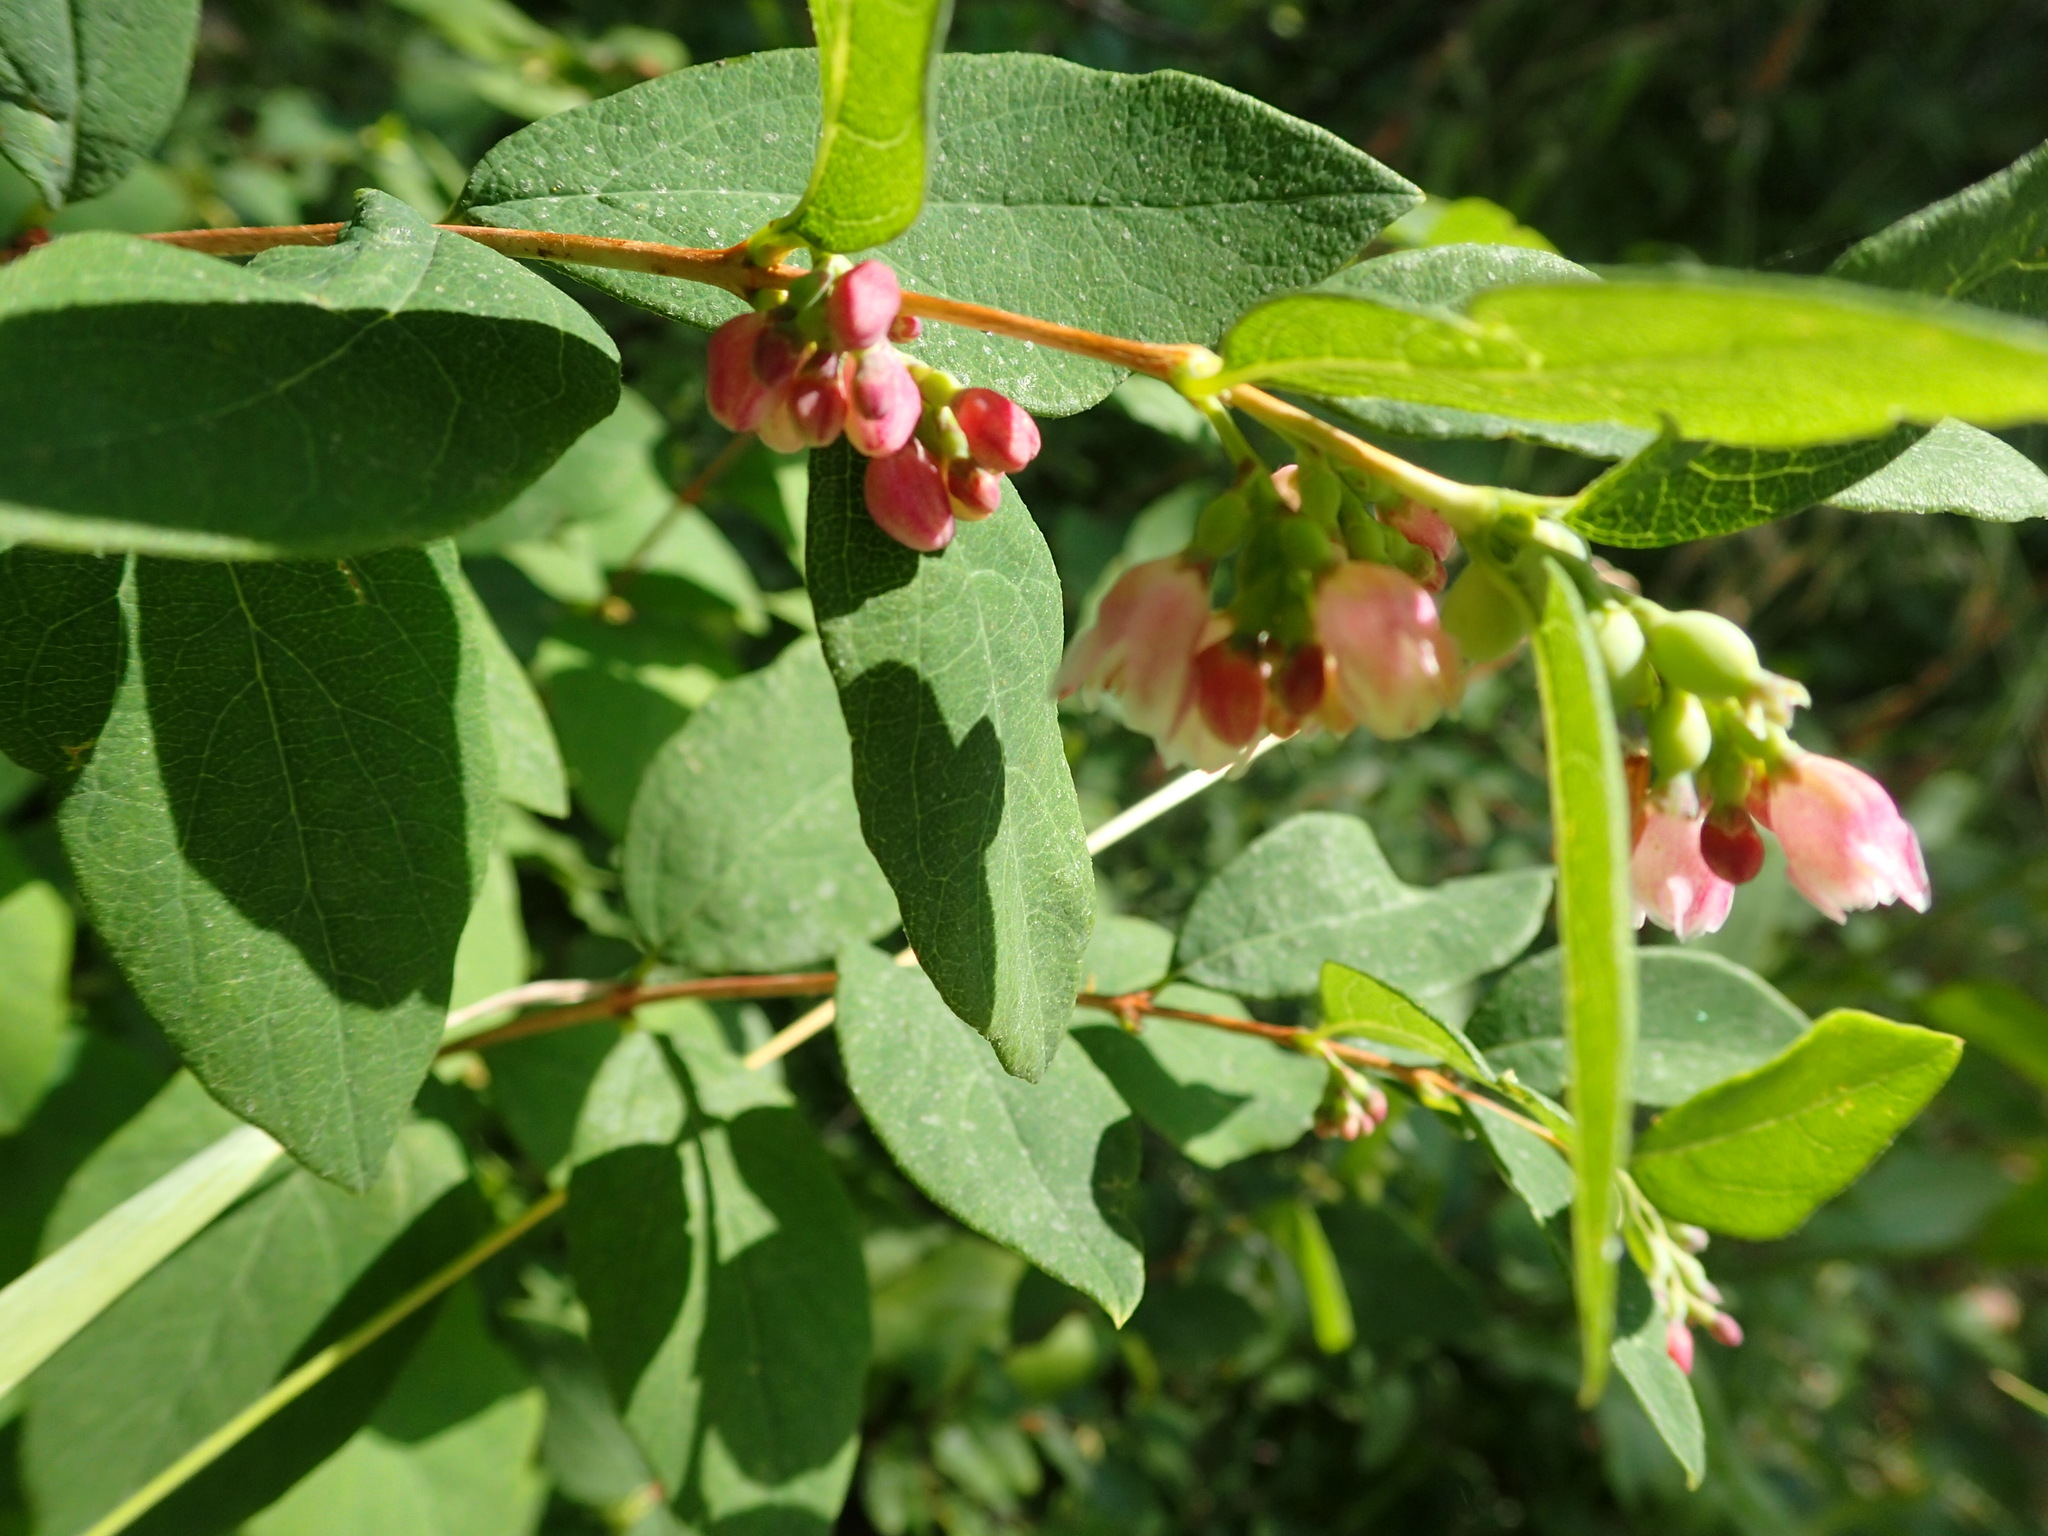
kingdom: Plantae
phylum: Tracheophyta
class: Magnoliopsida
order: Dipsacales
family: Caprifoliaceae
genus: Symphoricarpos
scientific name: Symphoricarpos albus
